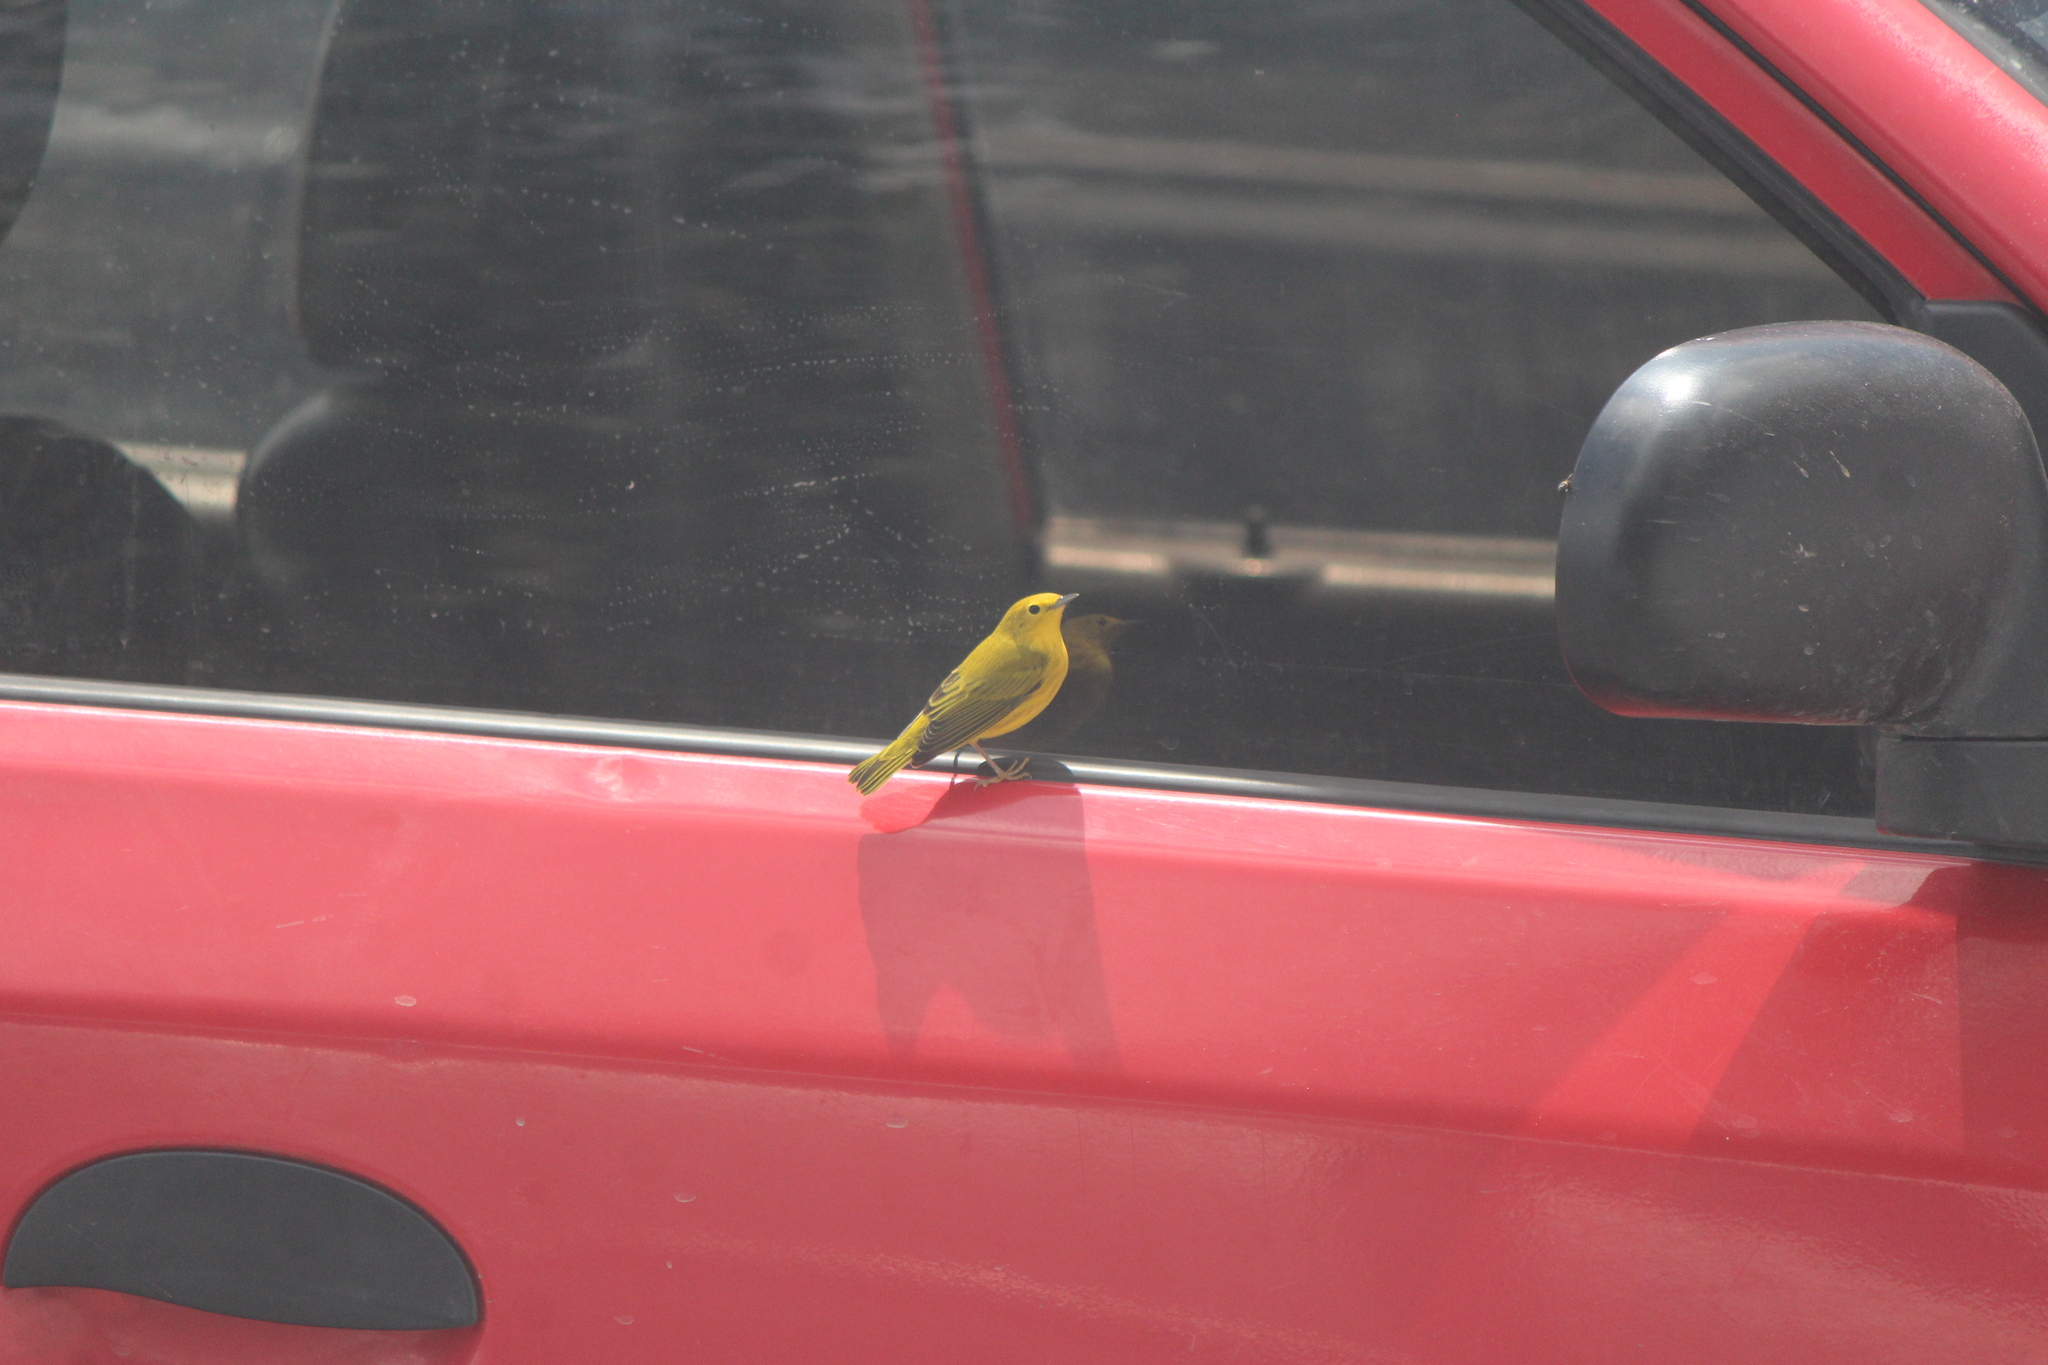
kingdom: Animalia
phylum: Chordata
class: Aves
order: Passeriformes
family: Parulidae
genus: Setophaga
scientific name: Setophaga petechia
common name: Yellow warbler
